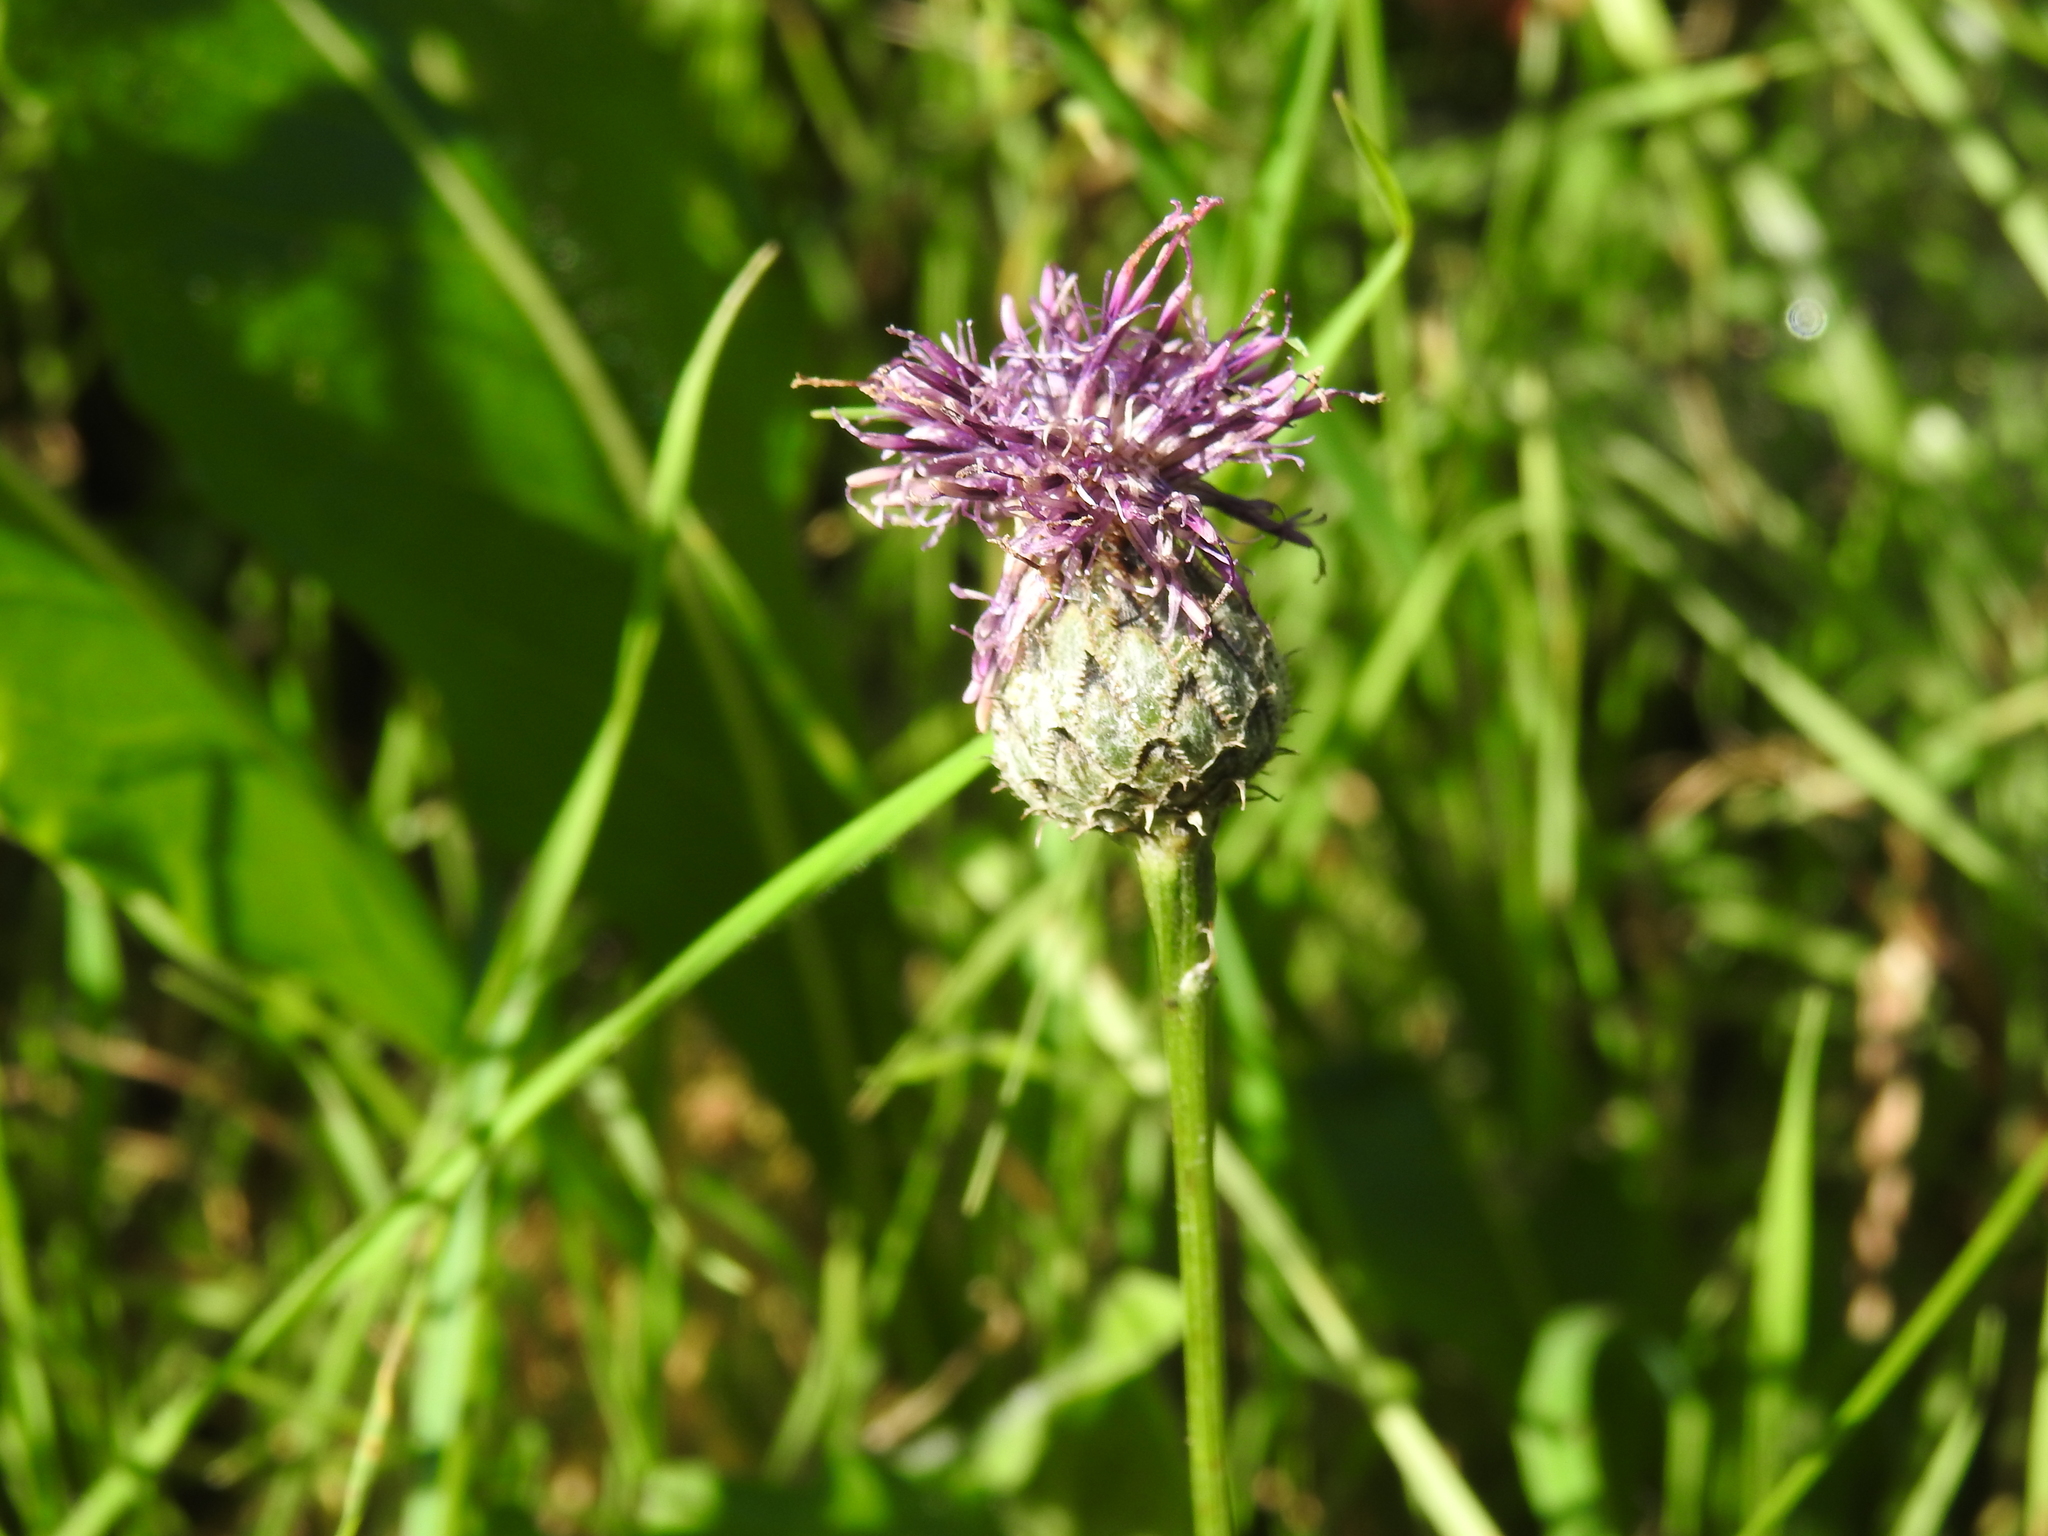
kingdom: Plantae
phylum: Tracheophyta
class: Magnoliopsida
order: Asterales
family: Asteraceae
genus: Centaurea
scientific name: Centaurea scabiosa
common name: Greater knapweed
